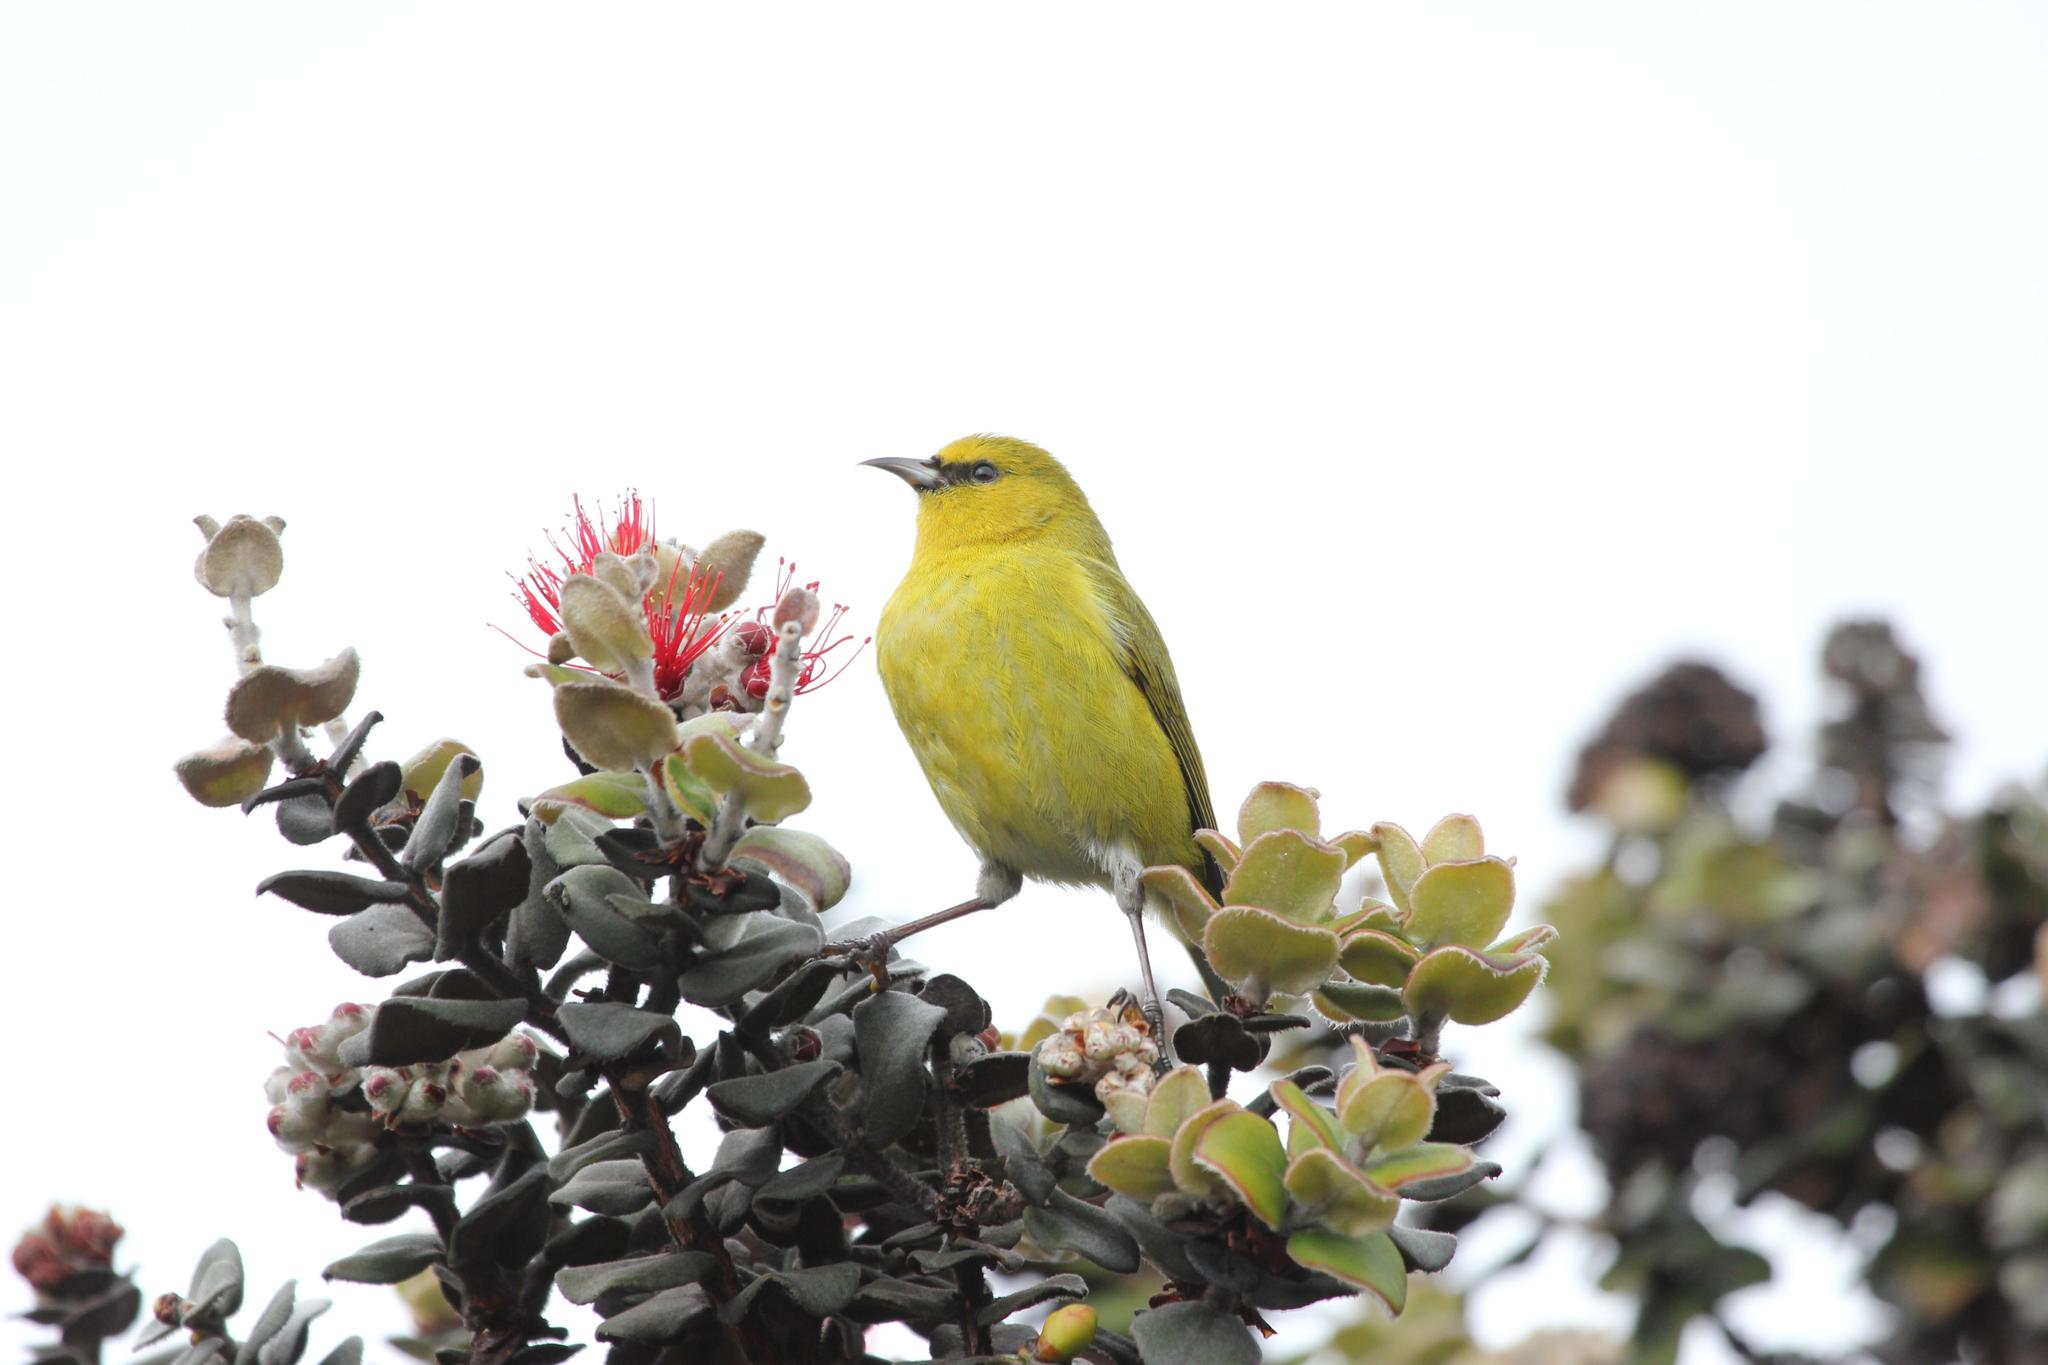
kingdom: Animalia
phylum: Chordata
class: Aves
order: Passeriformes
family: Fringillidae
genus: Chlorodrepanis
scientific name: Chlorodrepanis virens
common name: Hawaii amakihi
